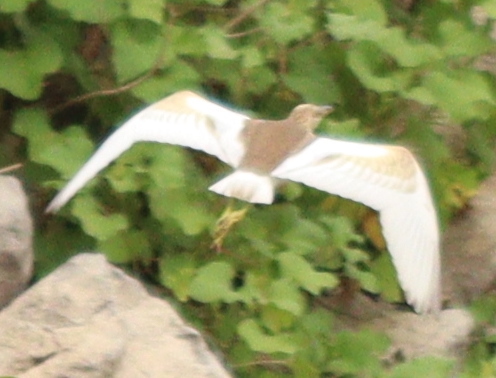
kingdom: Animalia
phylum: Chordata
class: Aves
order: Pelecaniformes
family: Ardeidae
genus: Ardeola
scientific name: Ardeola ralloides
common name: Squacco heron
